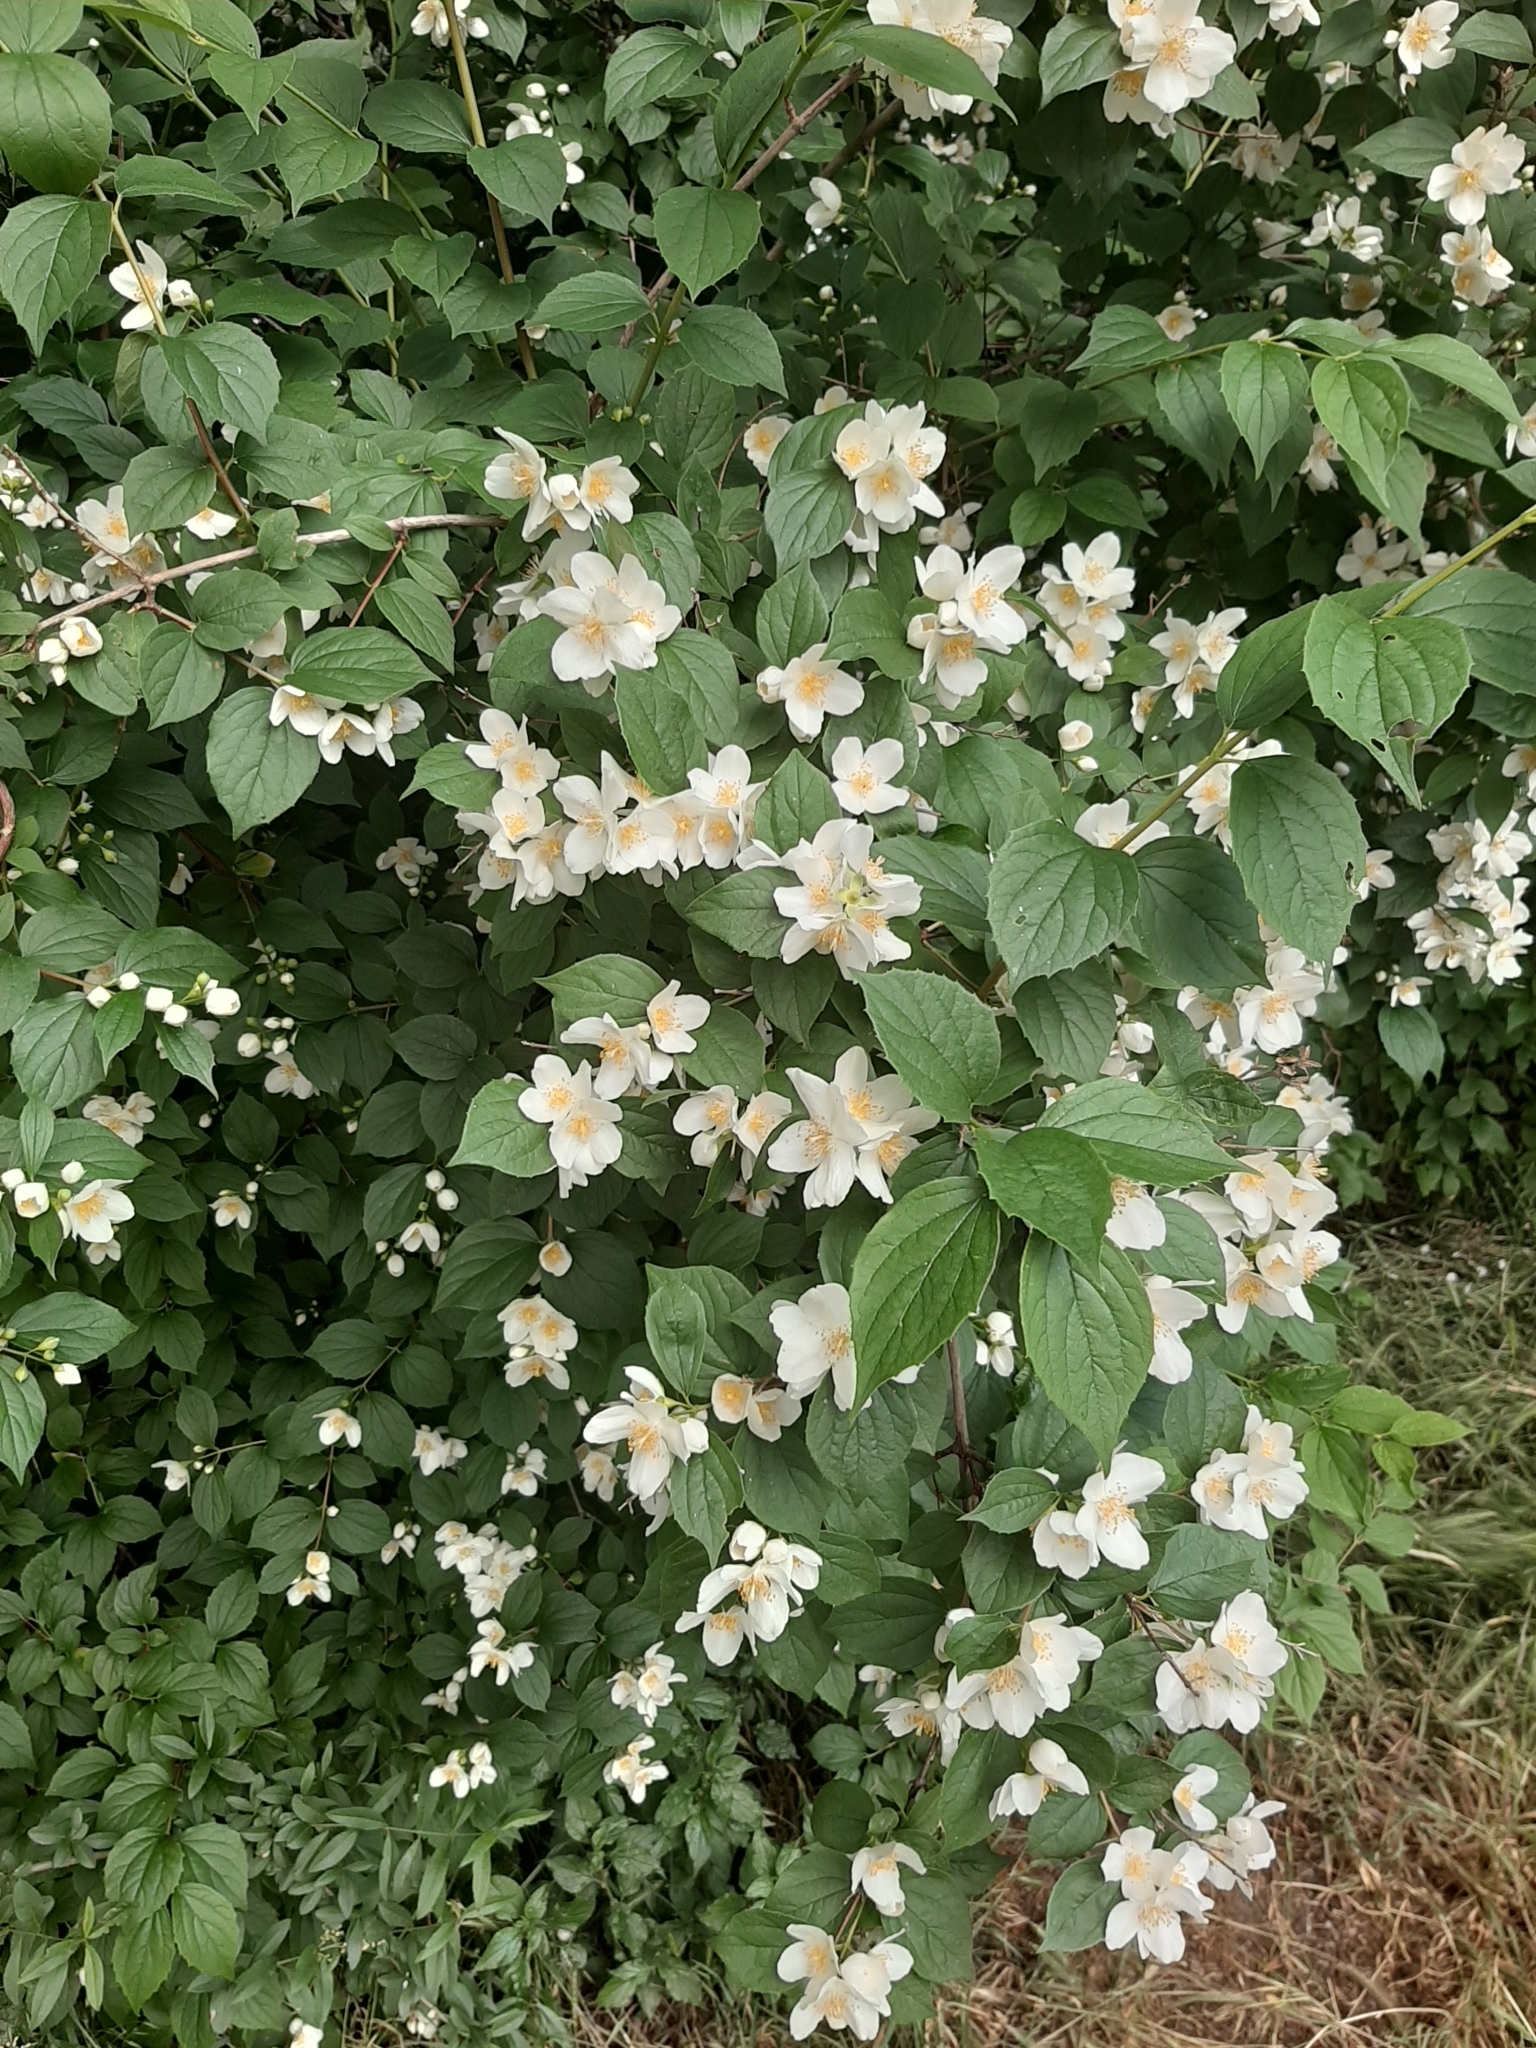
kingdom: Plantae
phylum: Tracheophyta
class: Magnoliopsida
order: Cornales
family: Hydrangeaceae
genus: Philadelphus
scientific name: Philadelphus coronarius
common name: Mock orange
